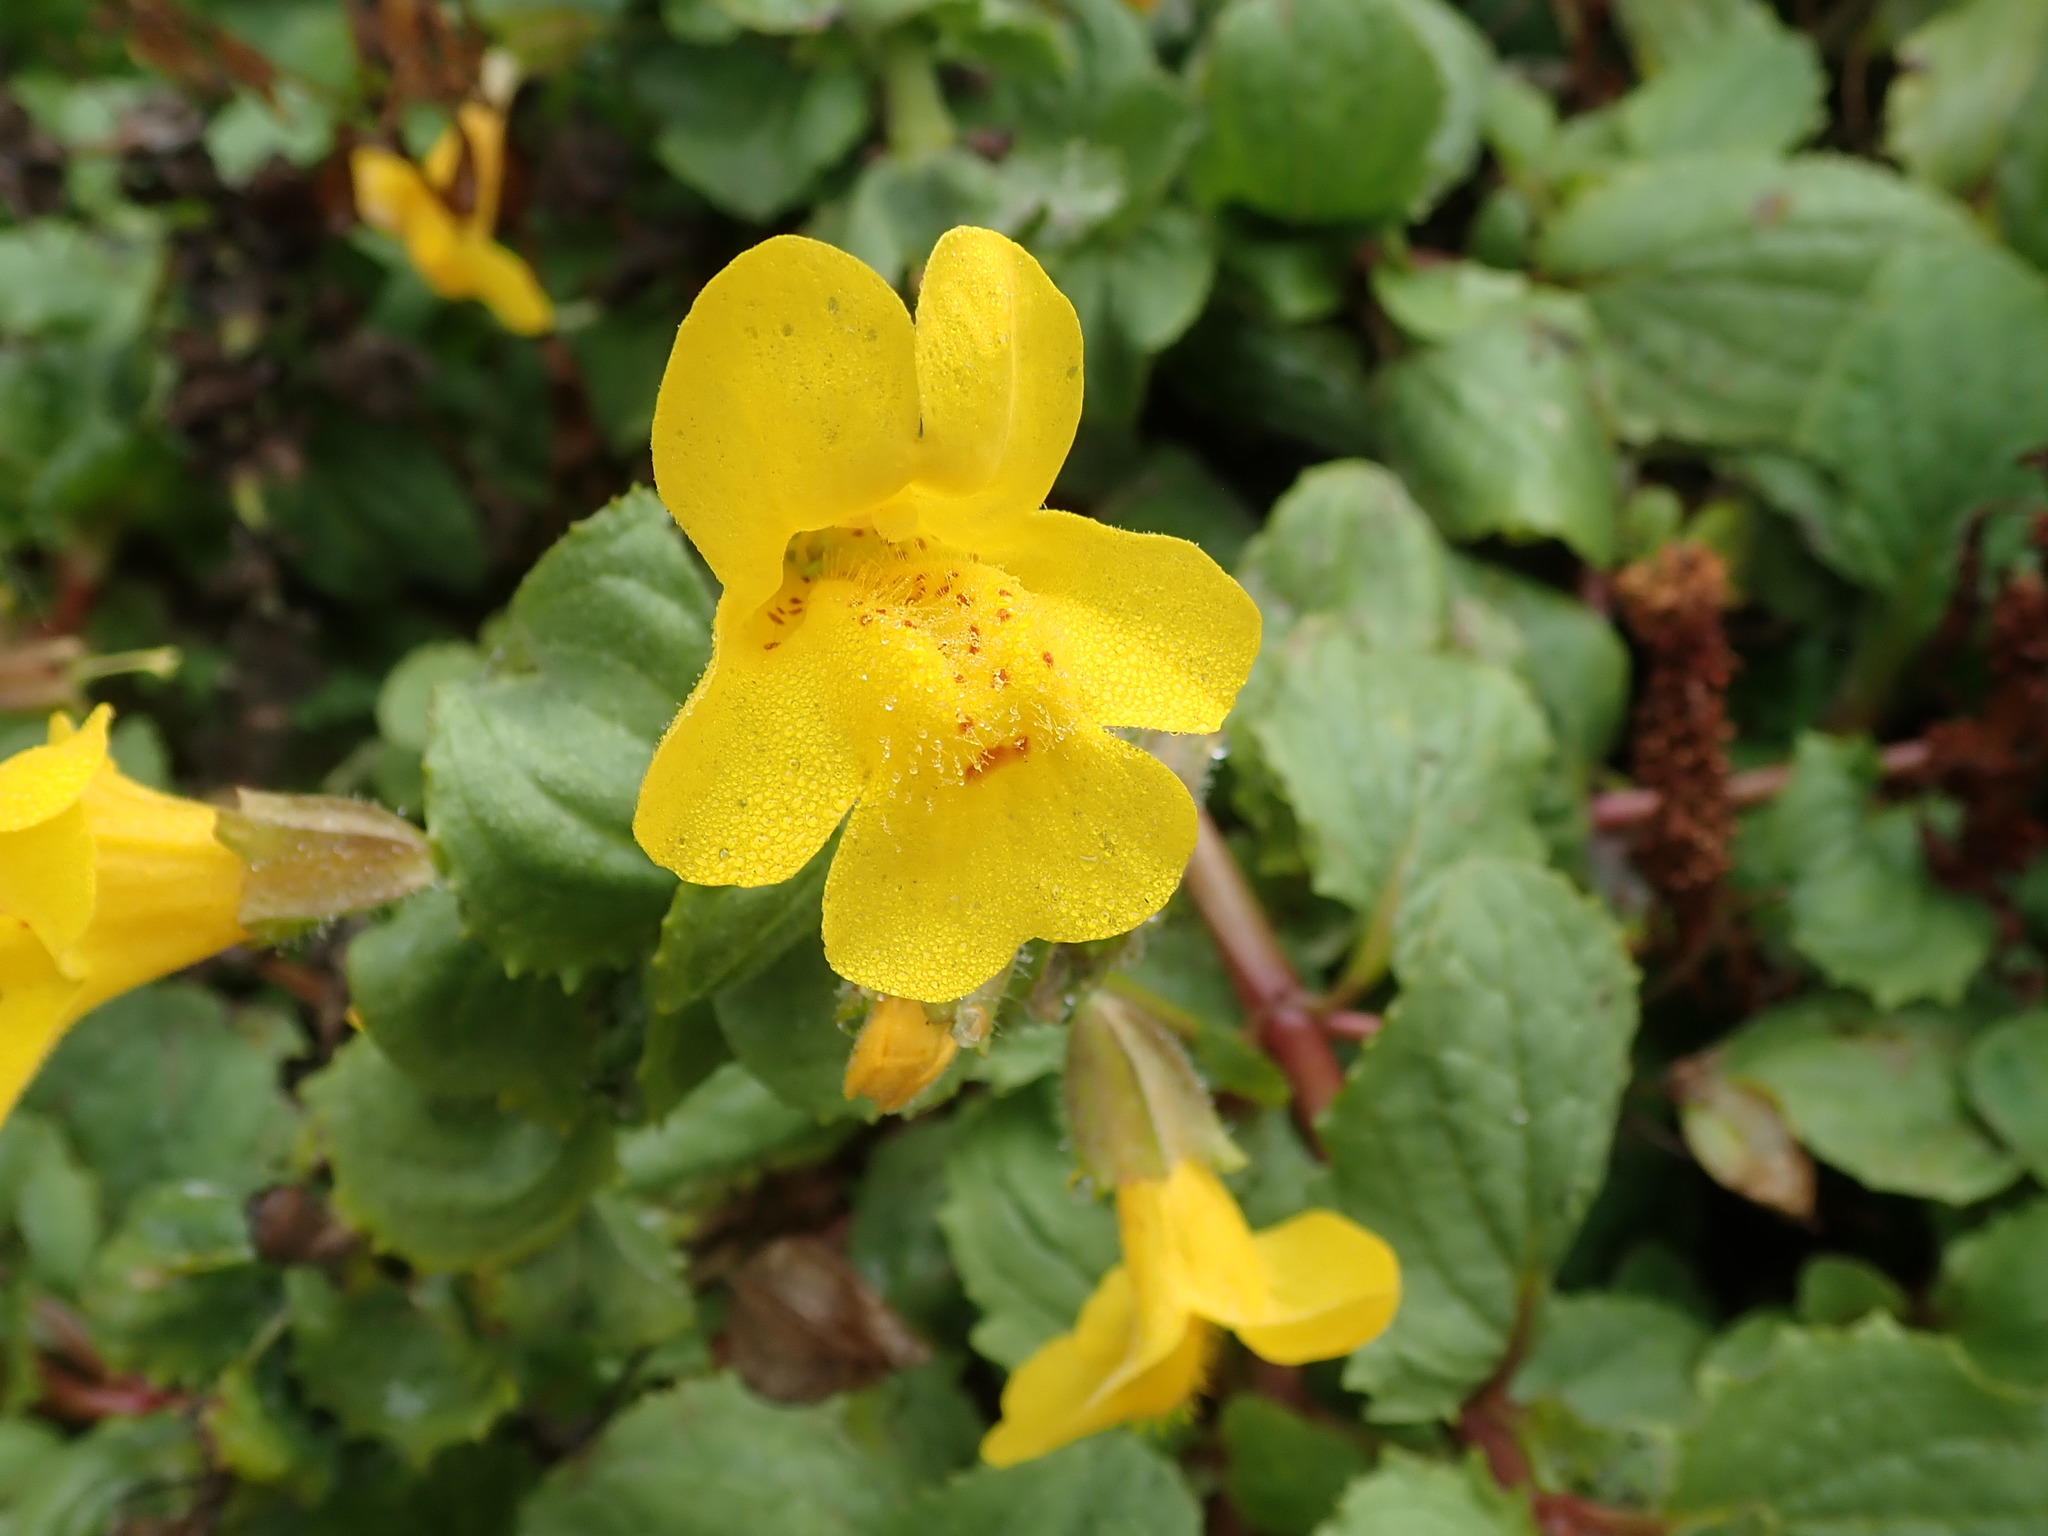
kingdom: Plantae
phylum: Tracheophyta
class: Magnoliopsida
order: Lamiales
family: Phrymaceae
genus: Erythranthe
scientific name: Erythranthe grandis
